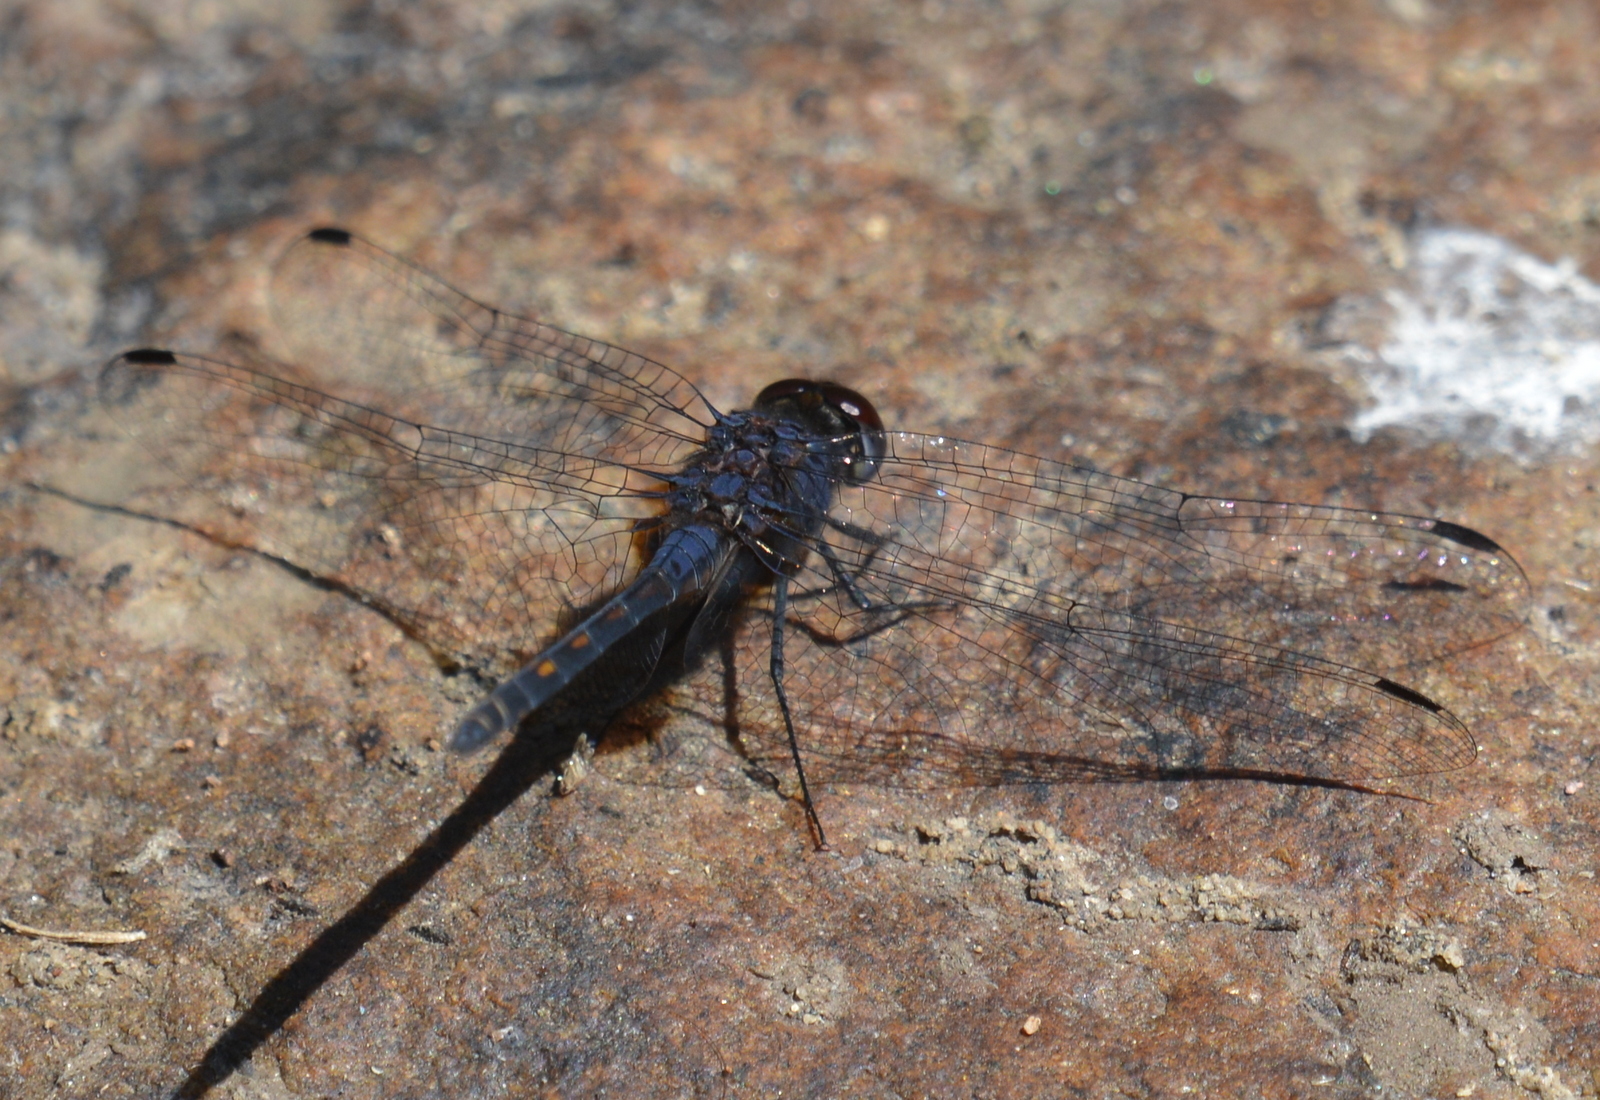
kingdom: Animalia
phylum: Arthropoda
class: Insecta
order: Odonata
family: Libellulidae
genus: Trithemis
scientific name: Trithemis festiva
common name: Indigo dropwing
